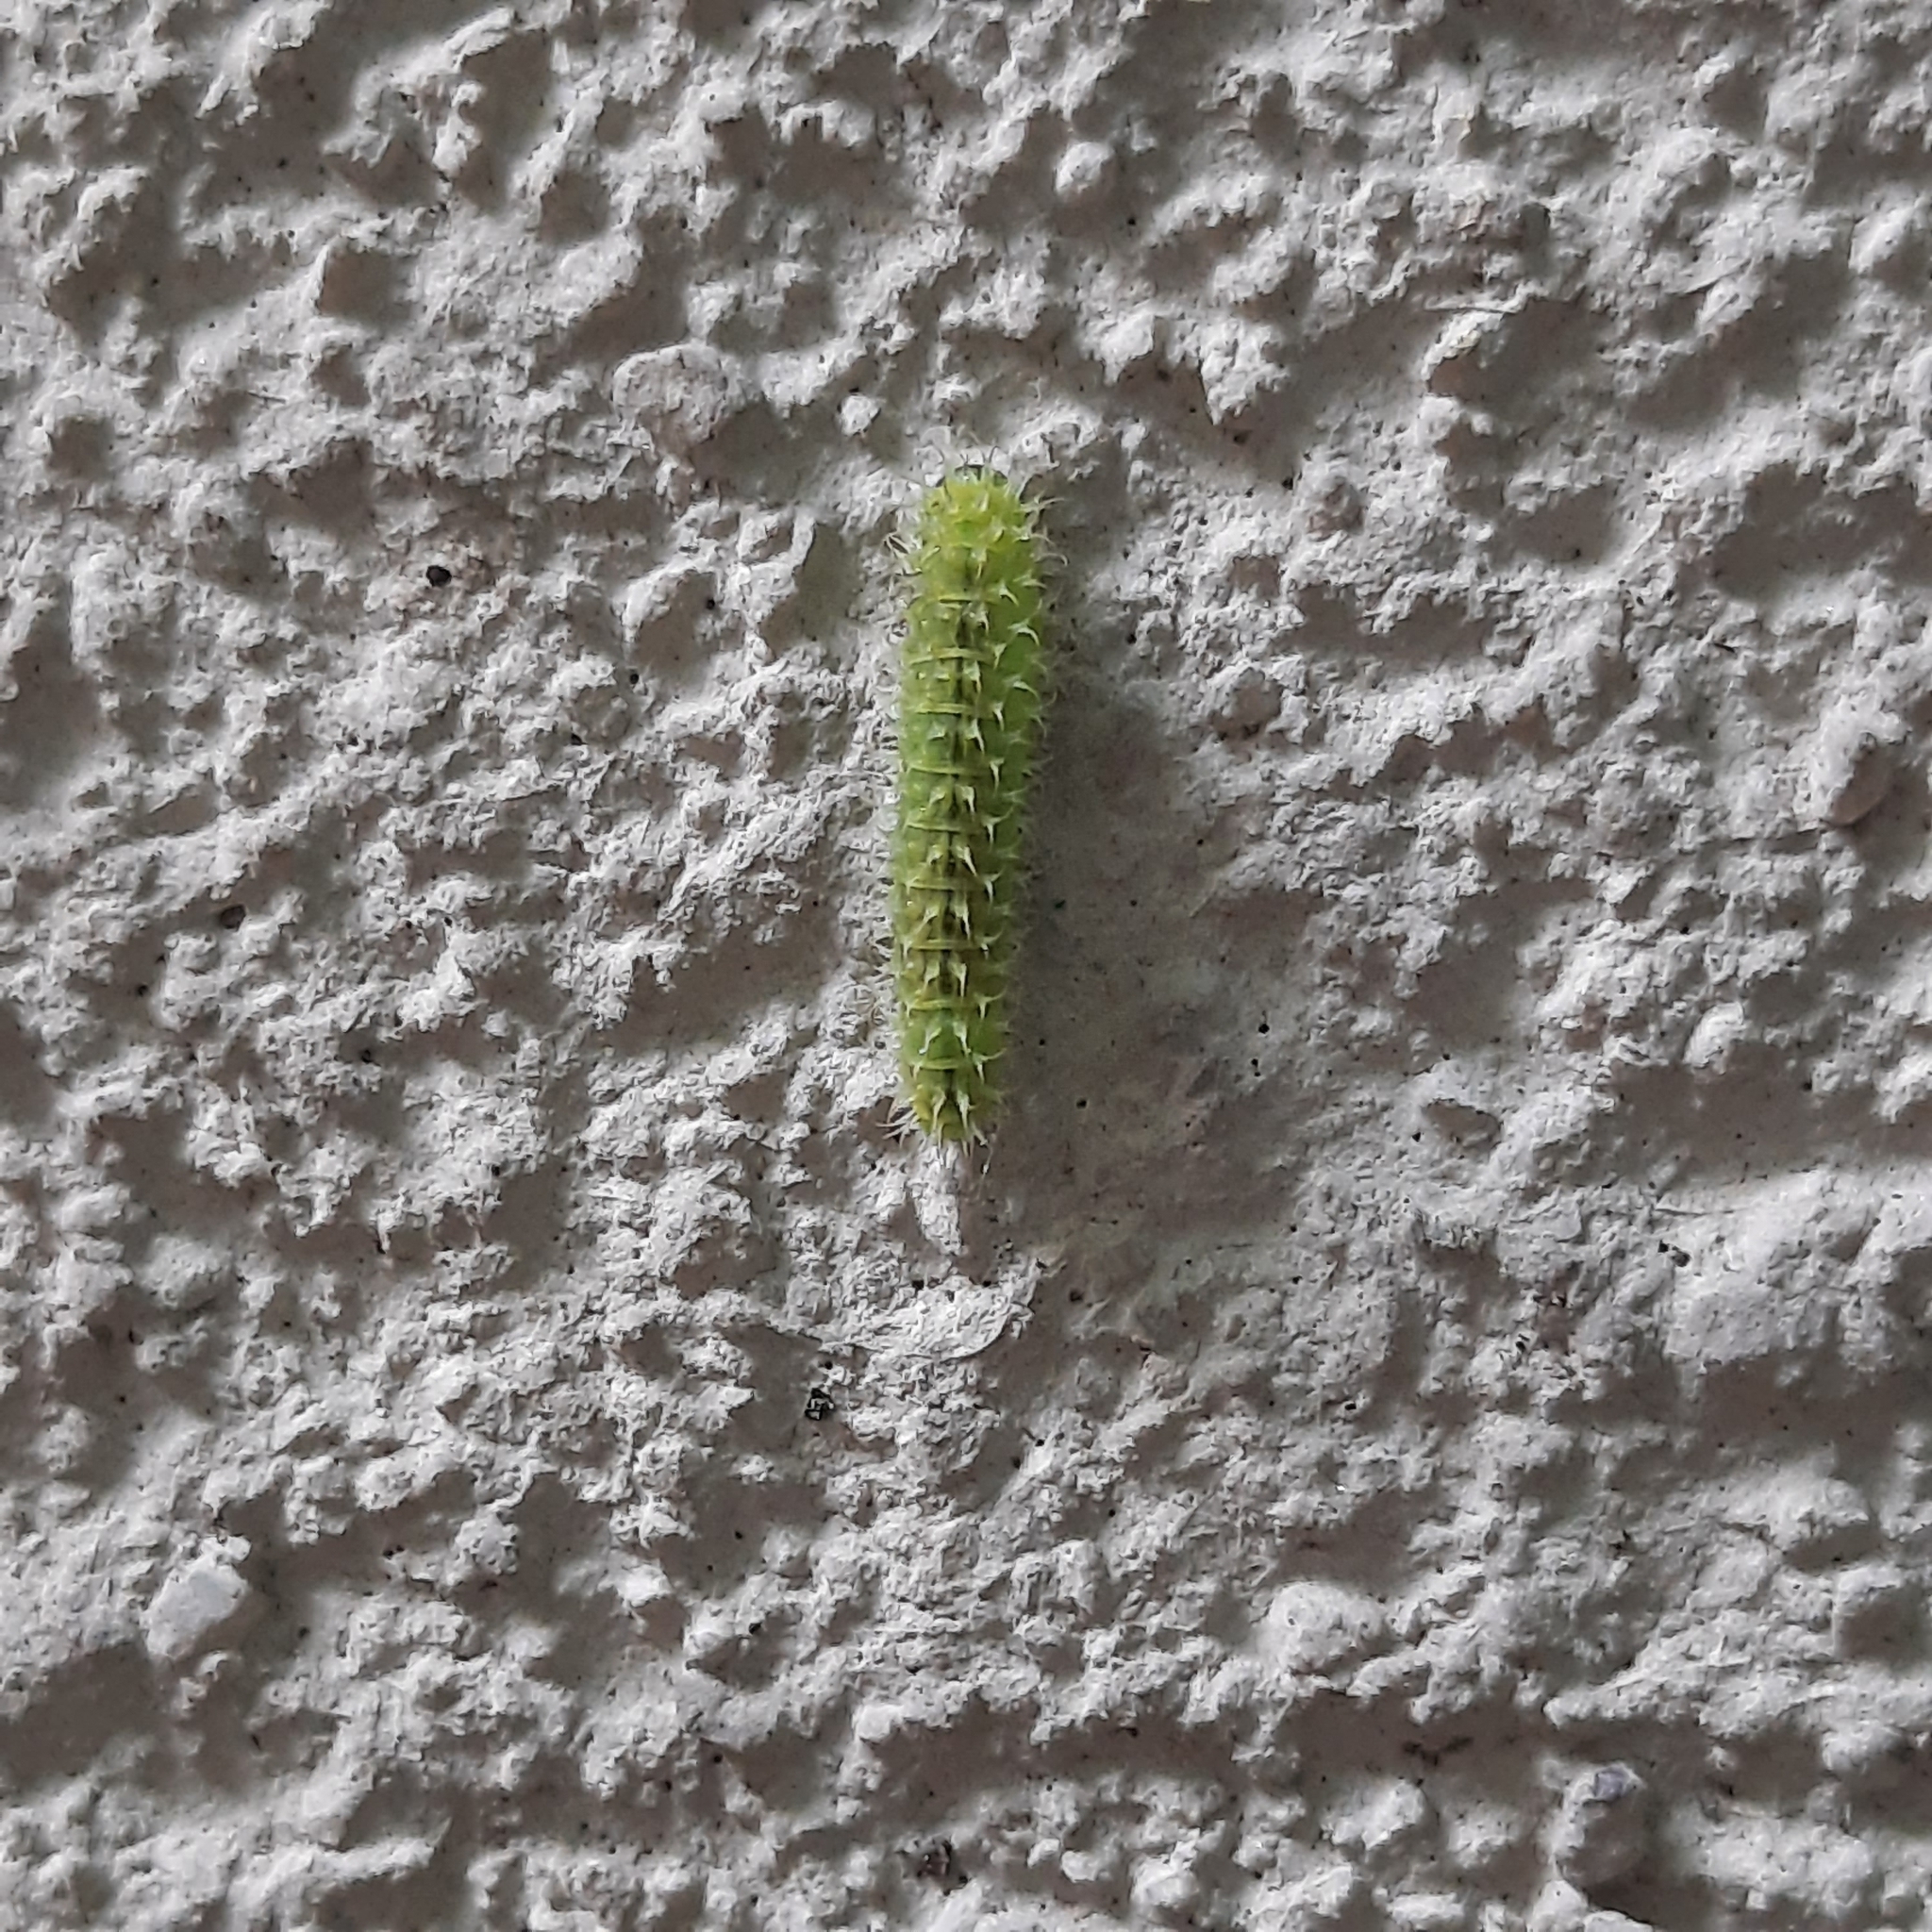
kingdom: Animalia
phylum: Arthropoda
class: Insecta
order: Hymenoptera
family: Tenthredinidae
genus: Periclista
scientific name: Periclista
